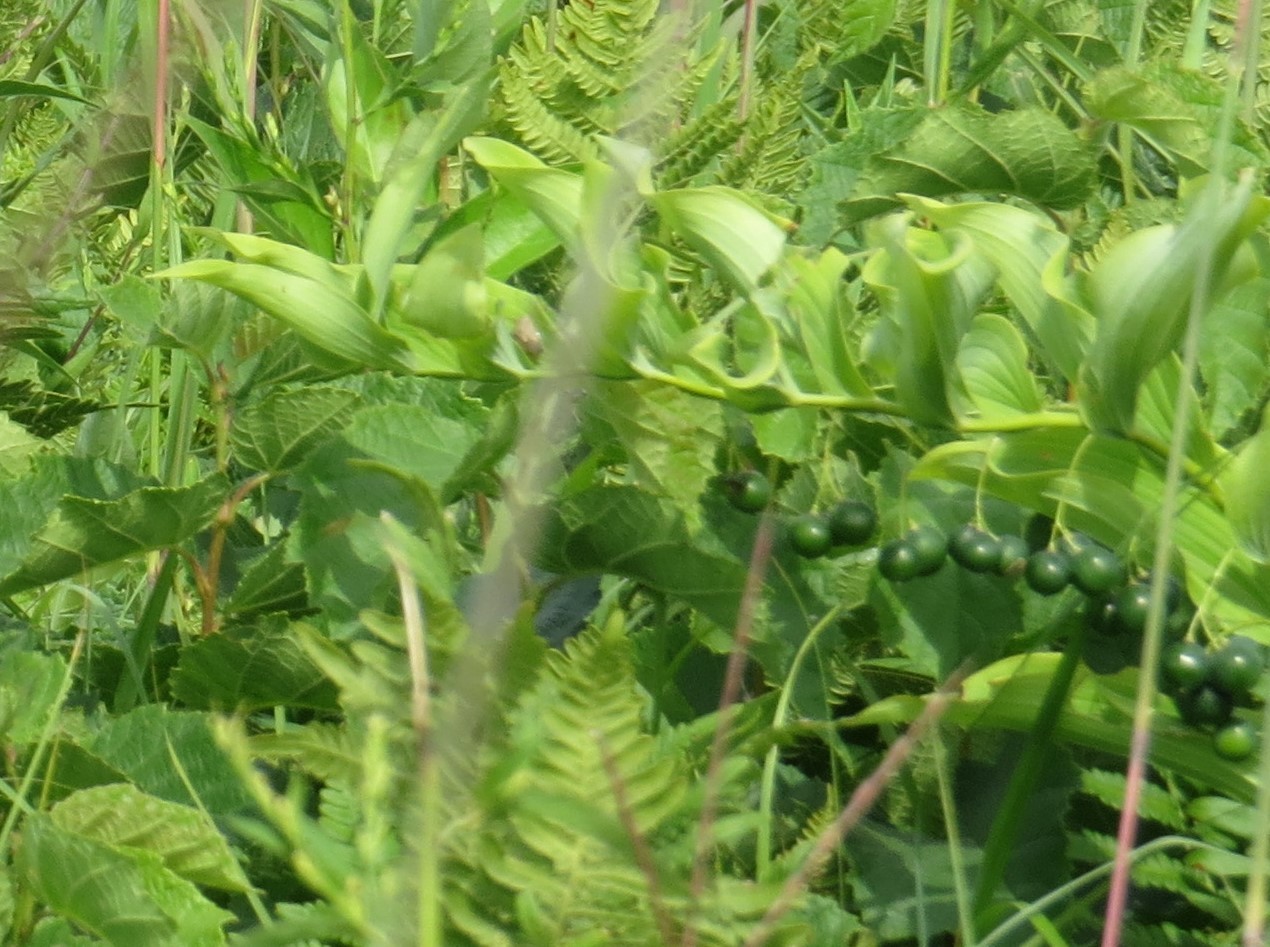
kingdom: Plantae
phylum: Tracheophyta
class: Liliopsida
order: Asparagales
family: Asparagaceae
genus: Polygonatum
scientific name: Polygonatum biflorum
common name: American solomon's-seal
